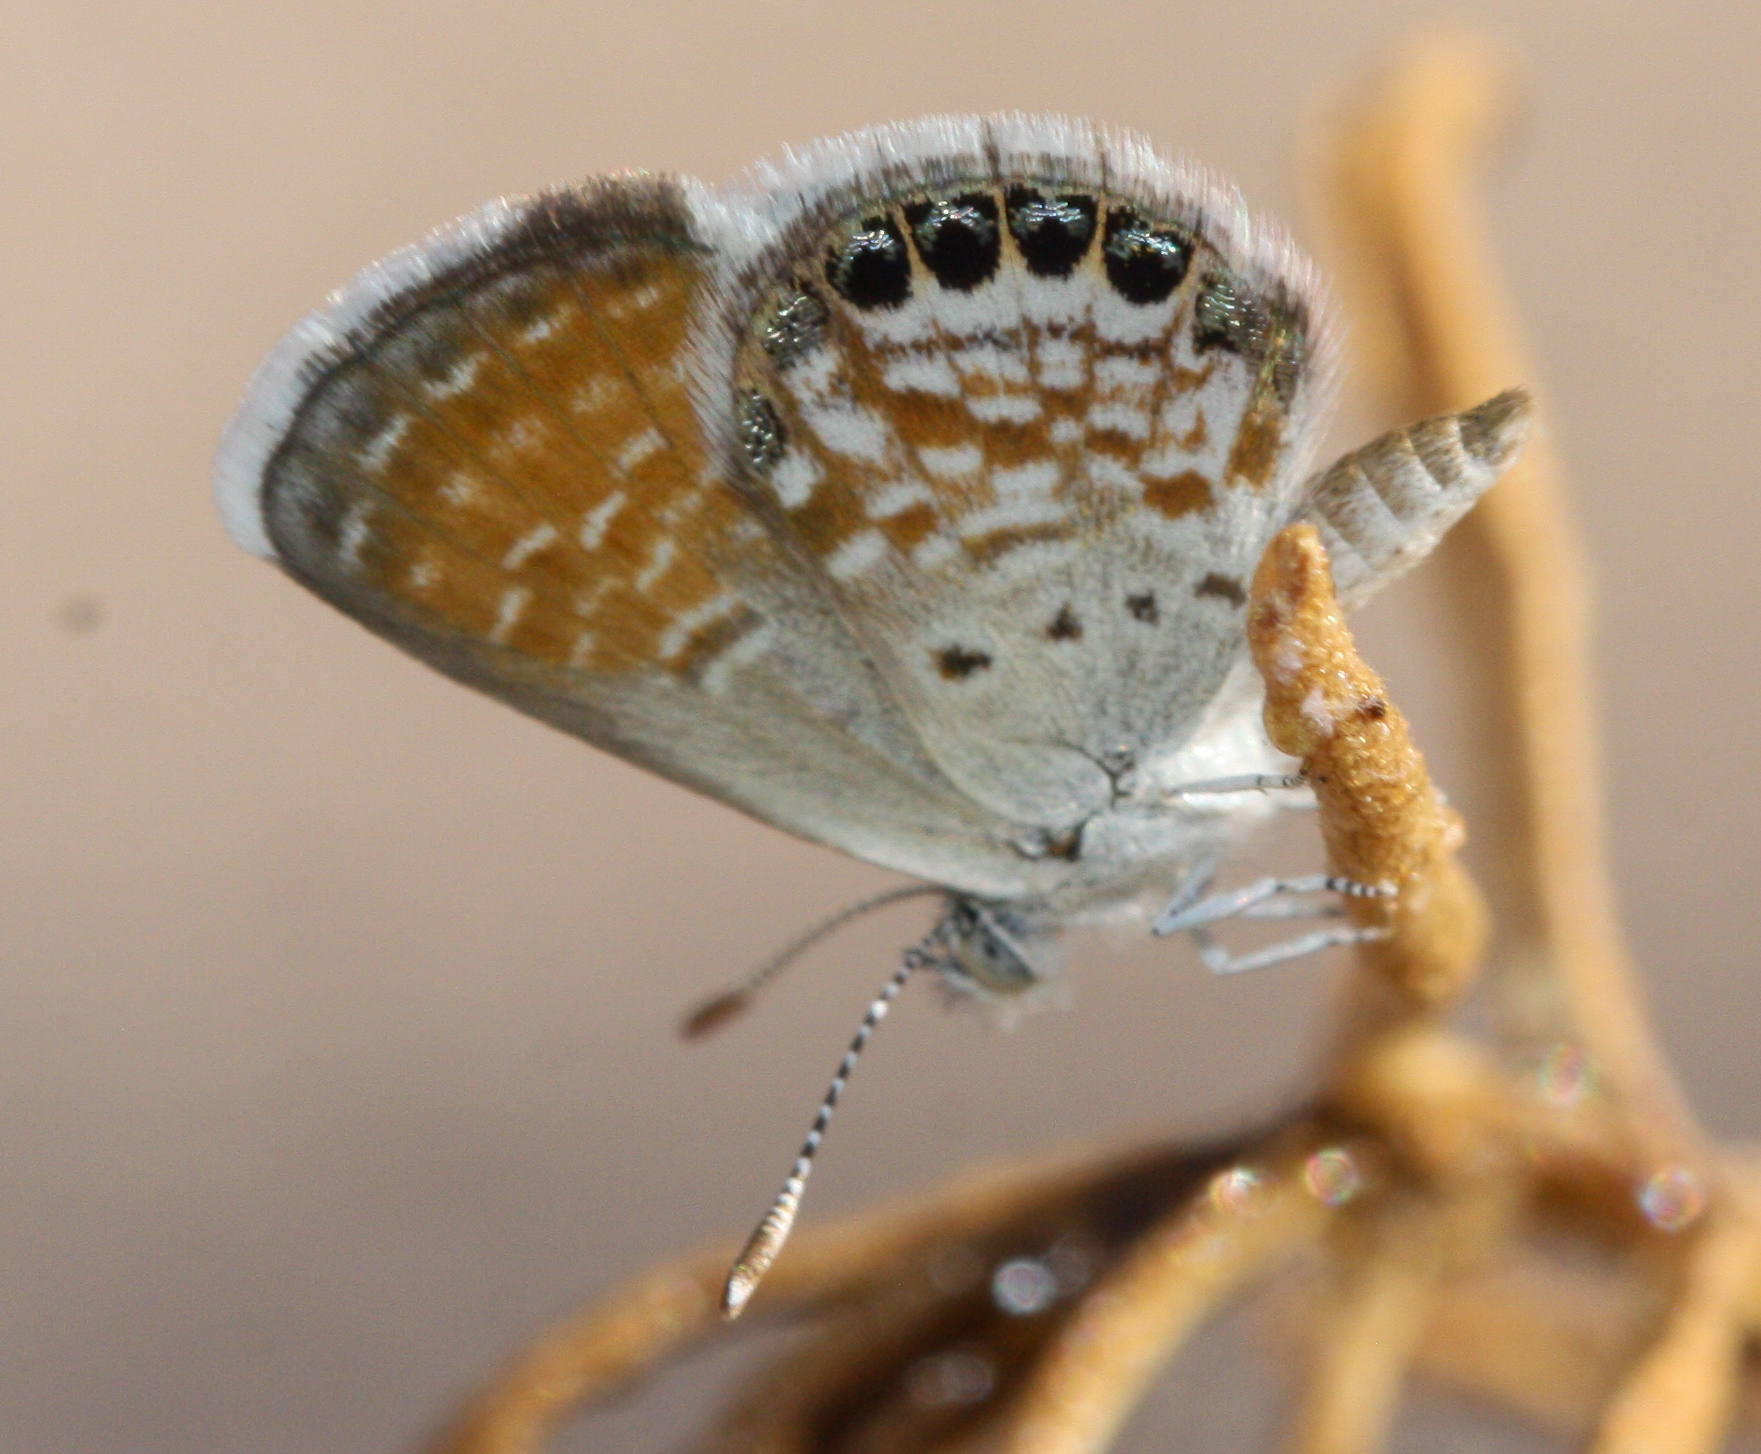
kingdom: Animalia
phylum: Arthropoda
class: Insecta
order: Lepidoptera
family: Lycaenidae
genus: Brephidium
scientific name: Brephidium exilis
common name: Pygmy blue
